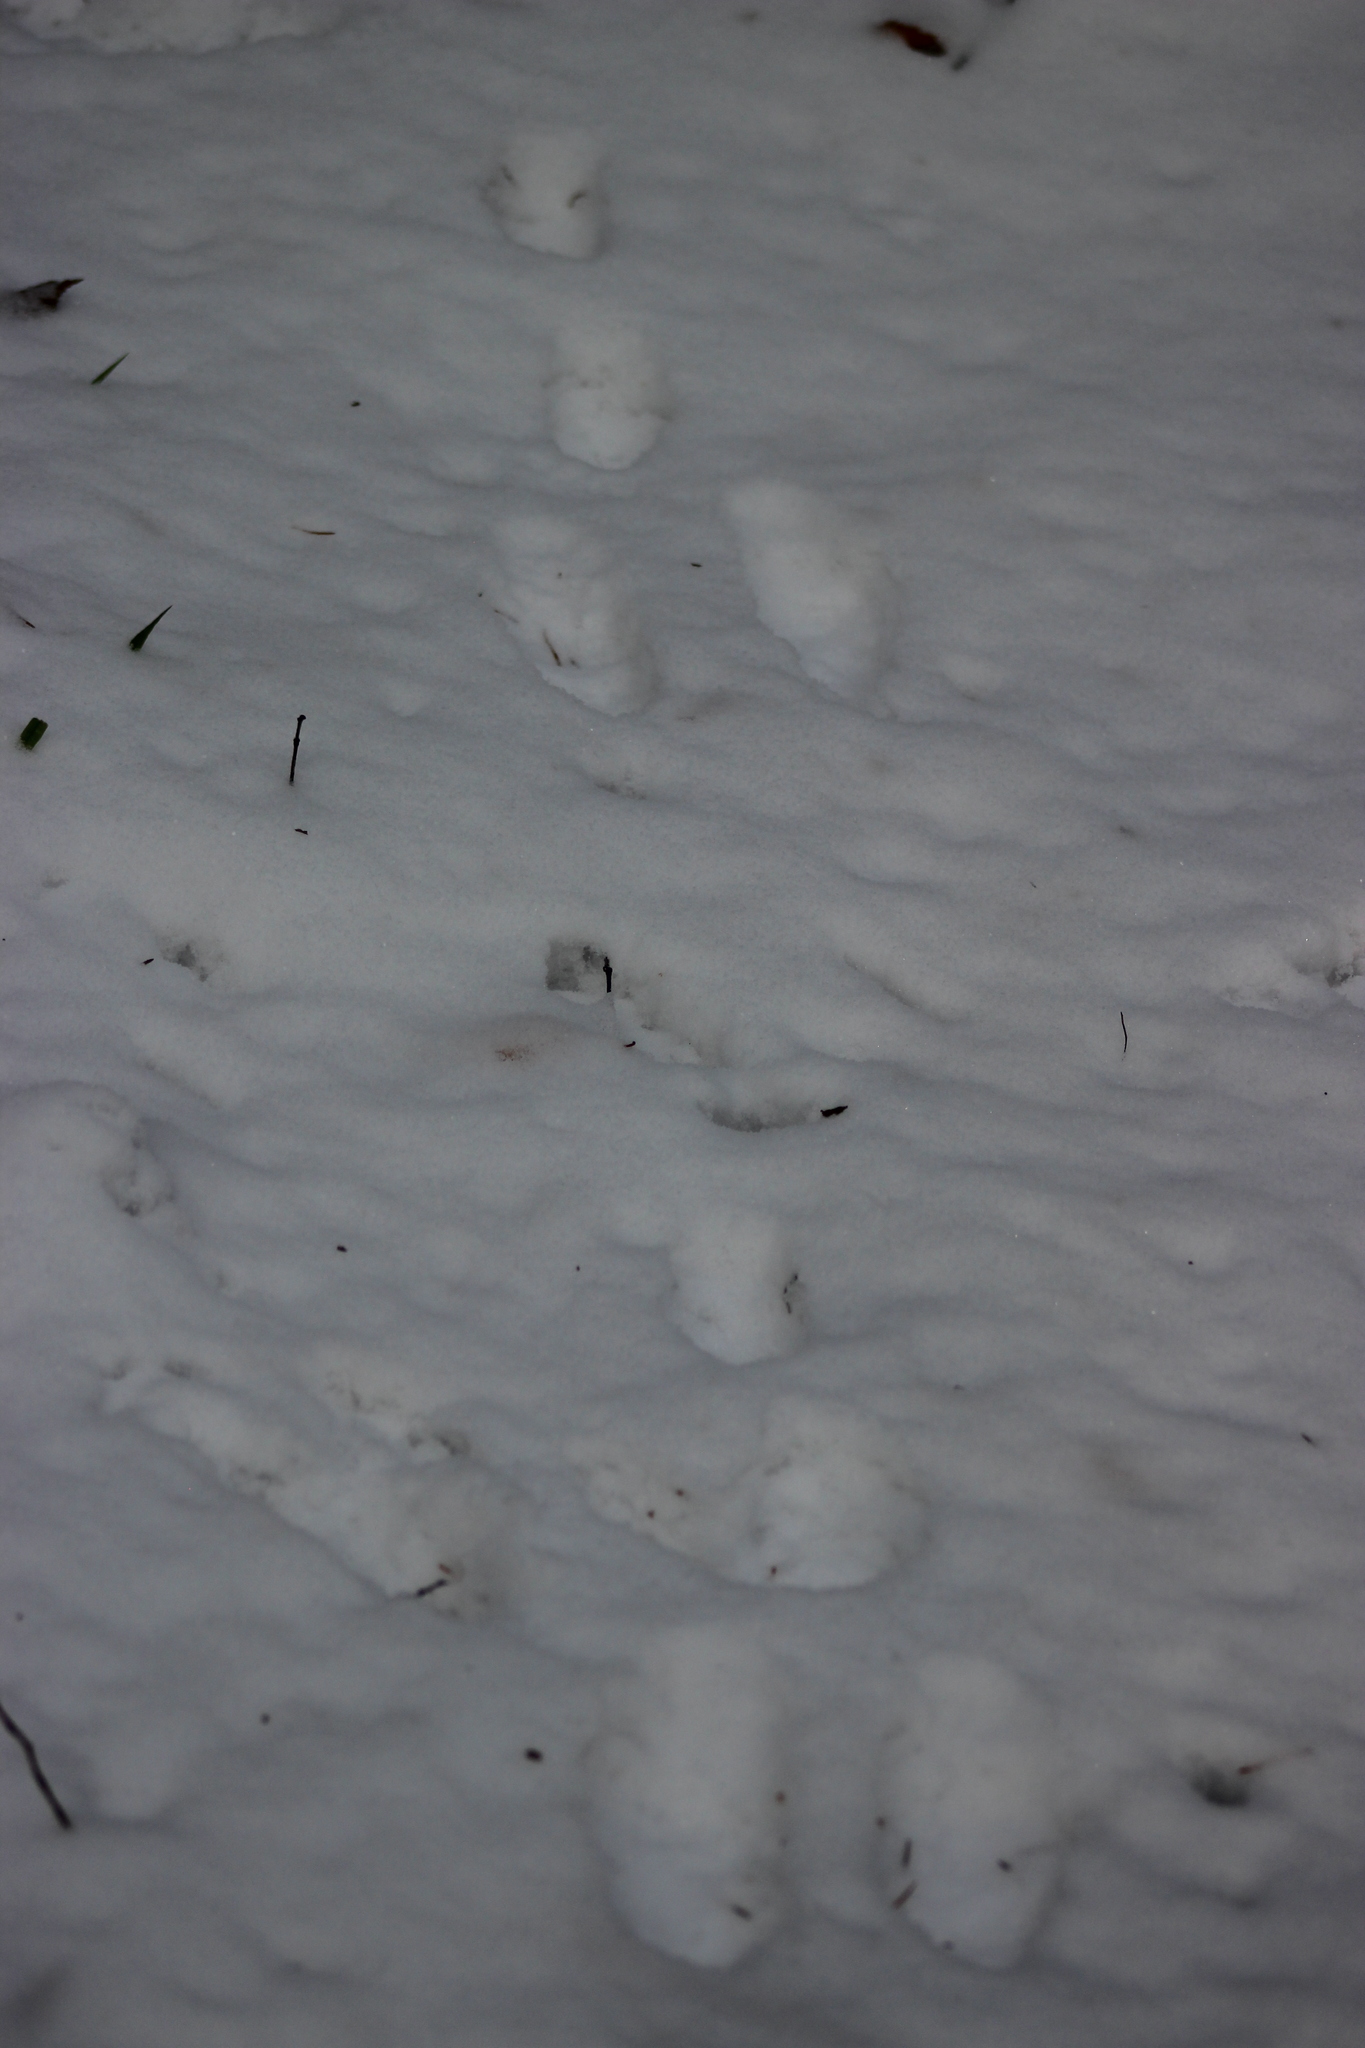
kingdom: Animalia
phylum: Chordata
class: Mammalia
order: Lagomorpha
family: Leporidae
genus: Lepus
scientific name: Lepus timidus
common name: Mountain hare
